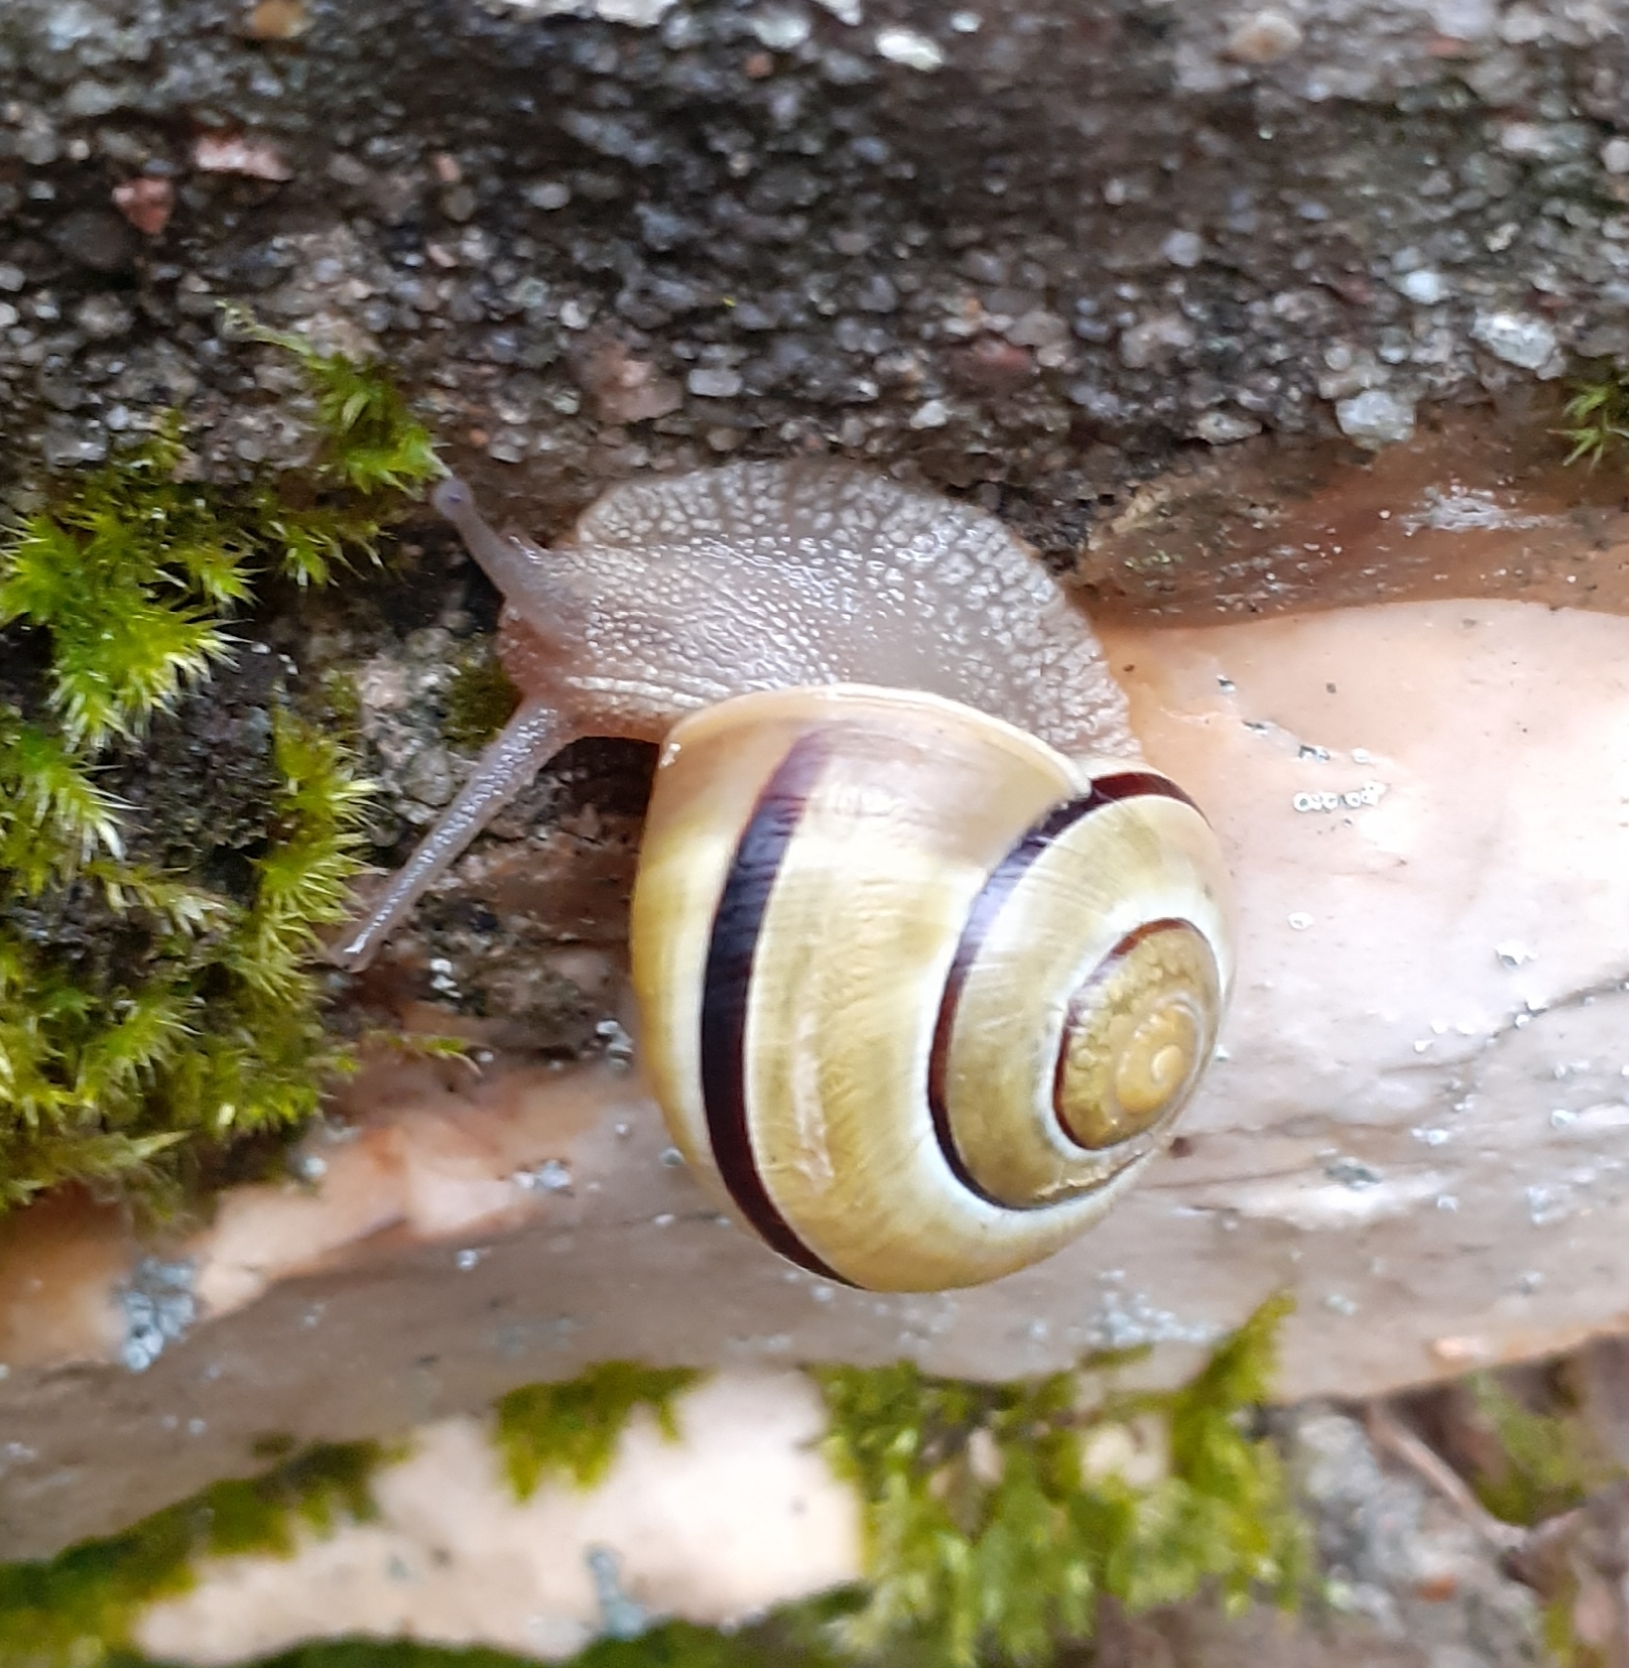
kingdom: Animalia
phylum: Mollusca
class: Gastropoda
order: Stylommatophora
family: Helicidae
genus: Cepaea
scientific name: Cepaea
